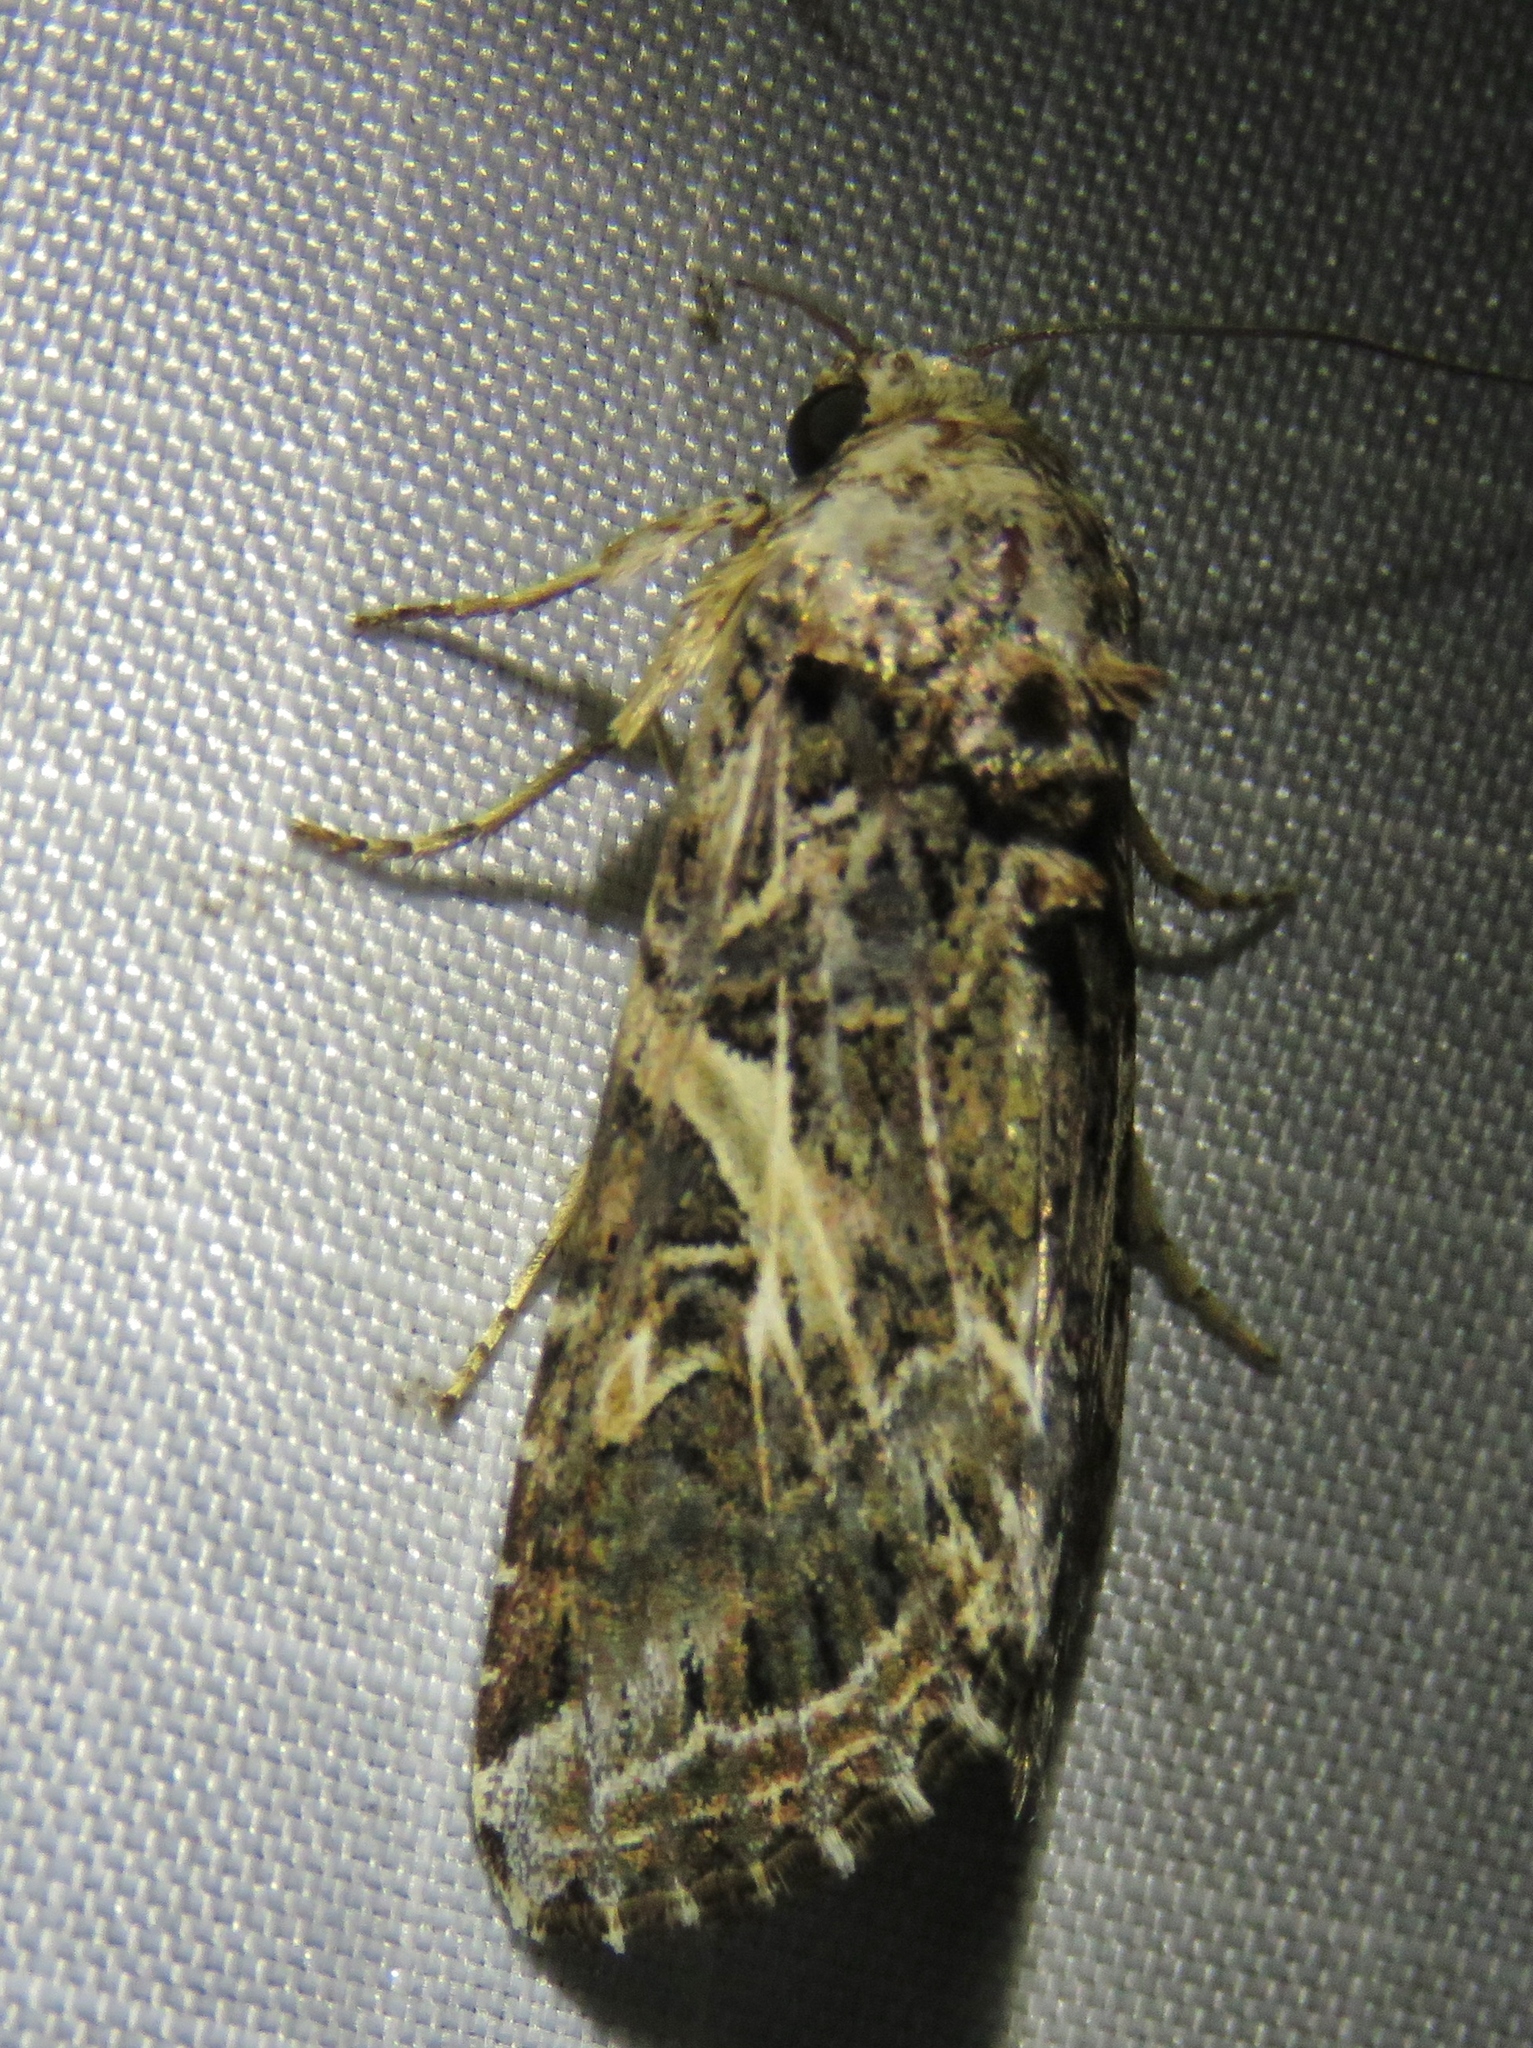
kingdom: Animalia
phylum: Arthropoda
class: Insecta
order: Lepidoptera
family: Noctuidae
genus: Spodoptera
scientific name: Spodoptera ornithogalli
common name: Yellow-striped armyworm
